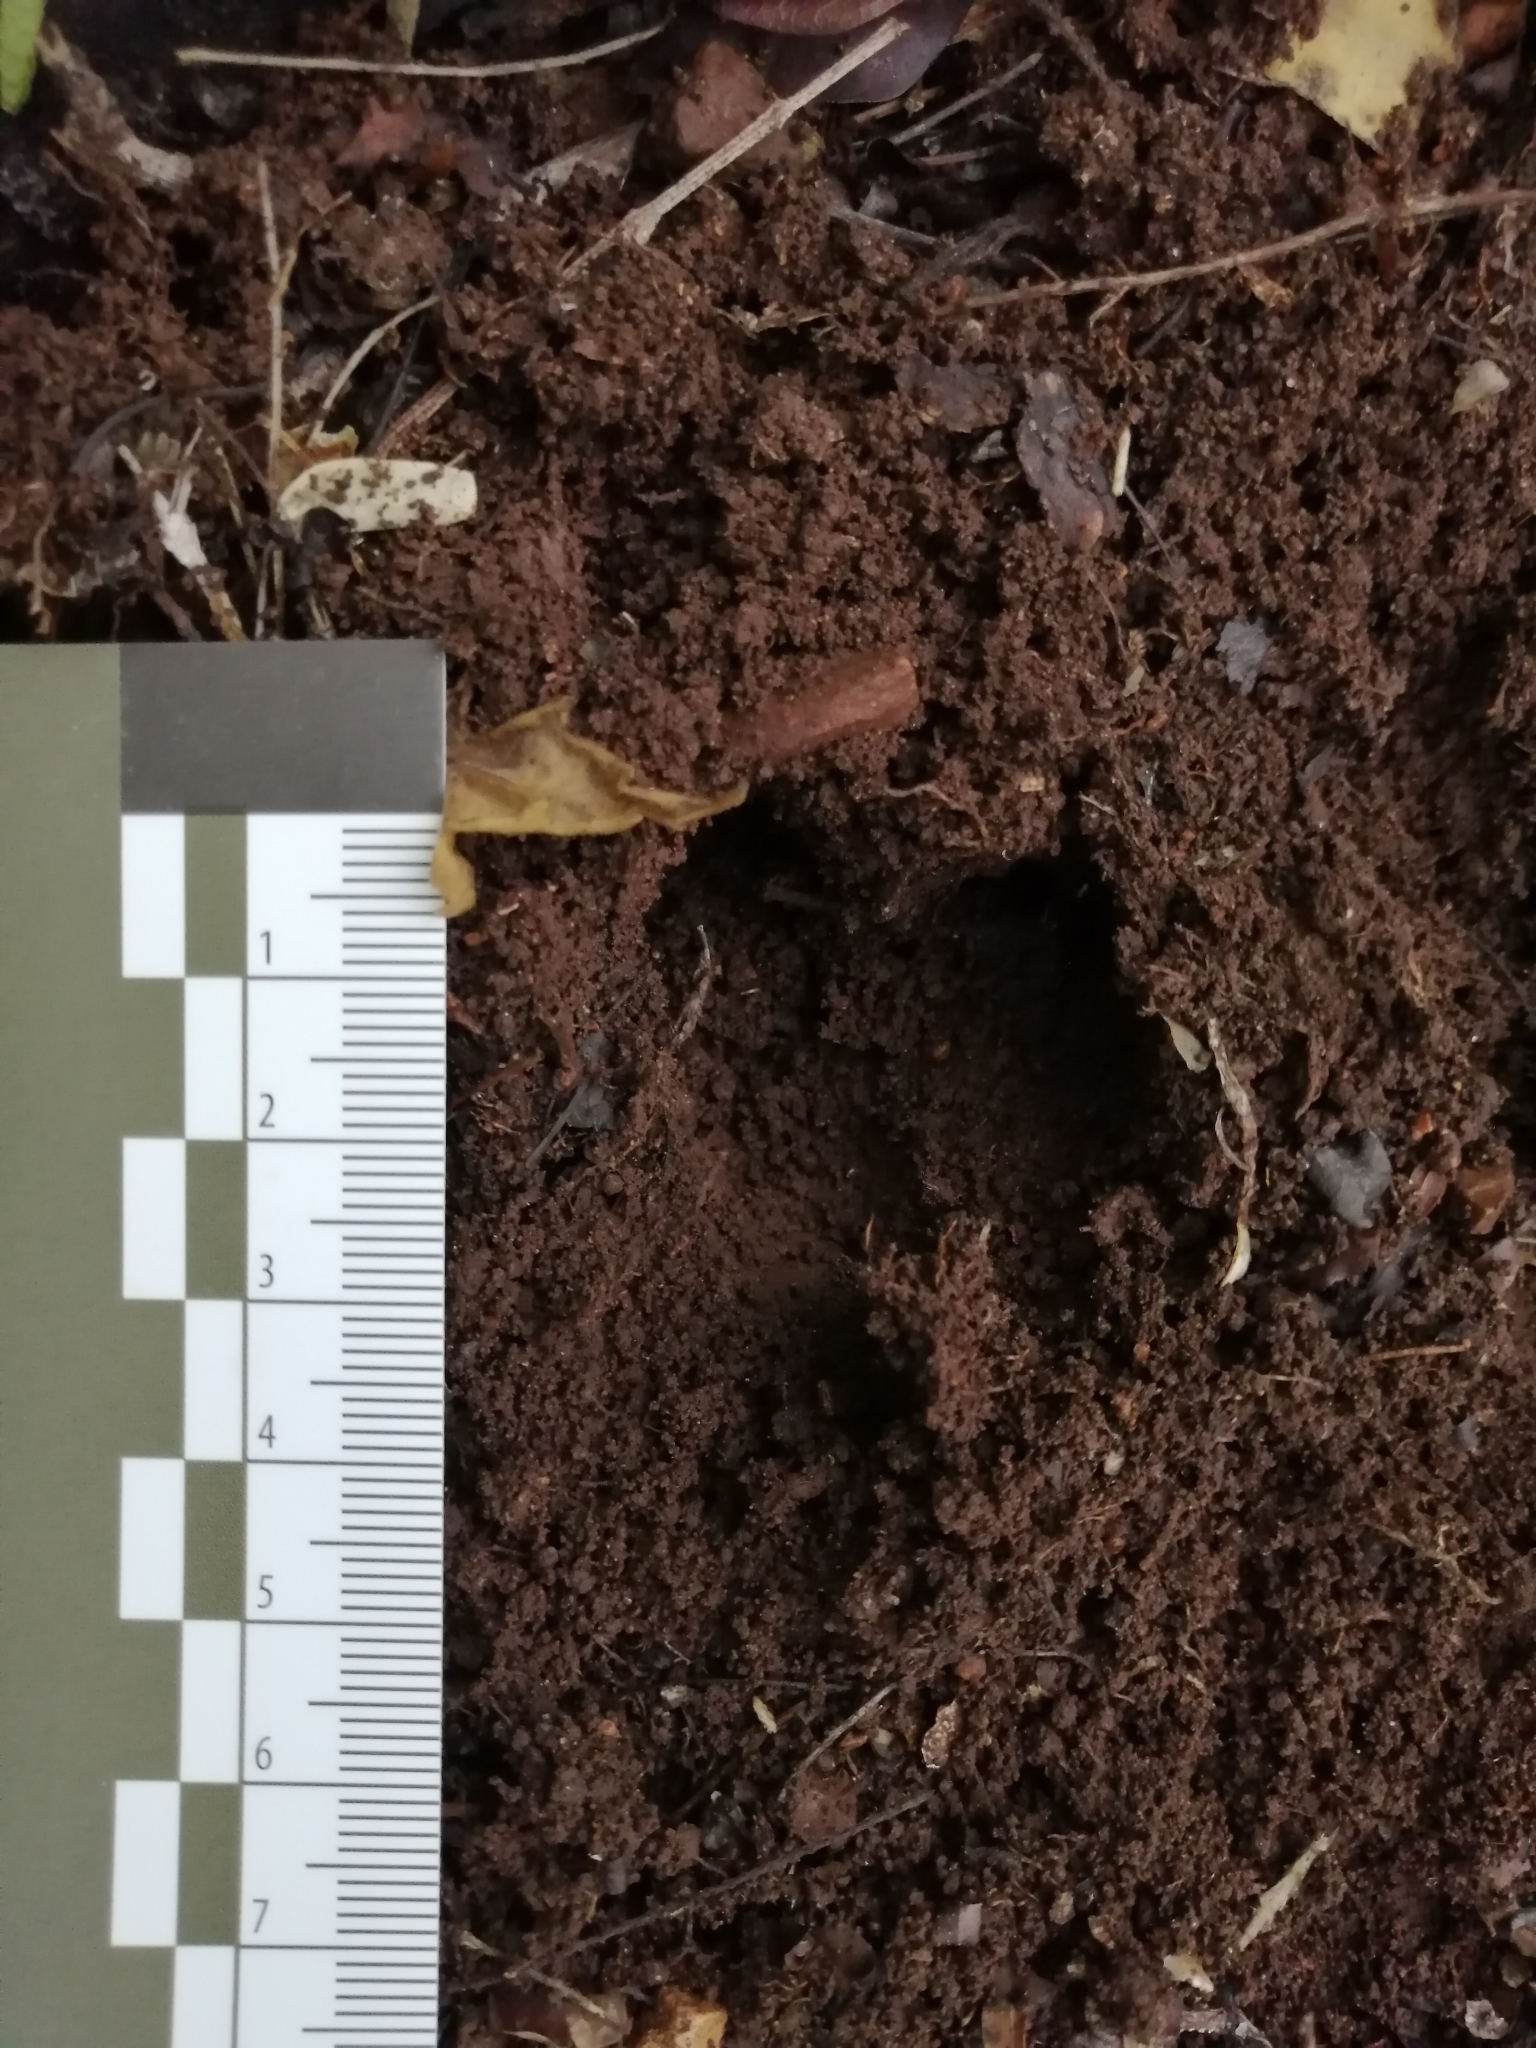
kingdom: Animalia
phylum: Chordata
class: Mammalia
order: Artiodactyla
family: Tayassuidae
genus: Pecari
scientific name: Pecari tajacu
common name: Collared peccary
